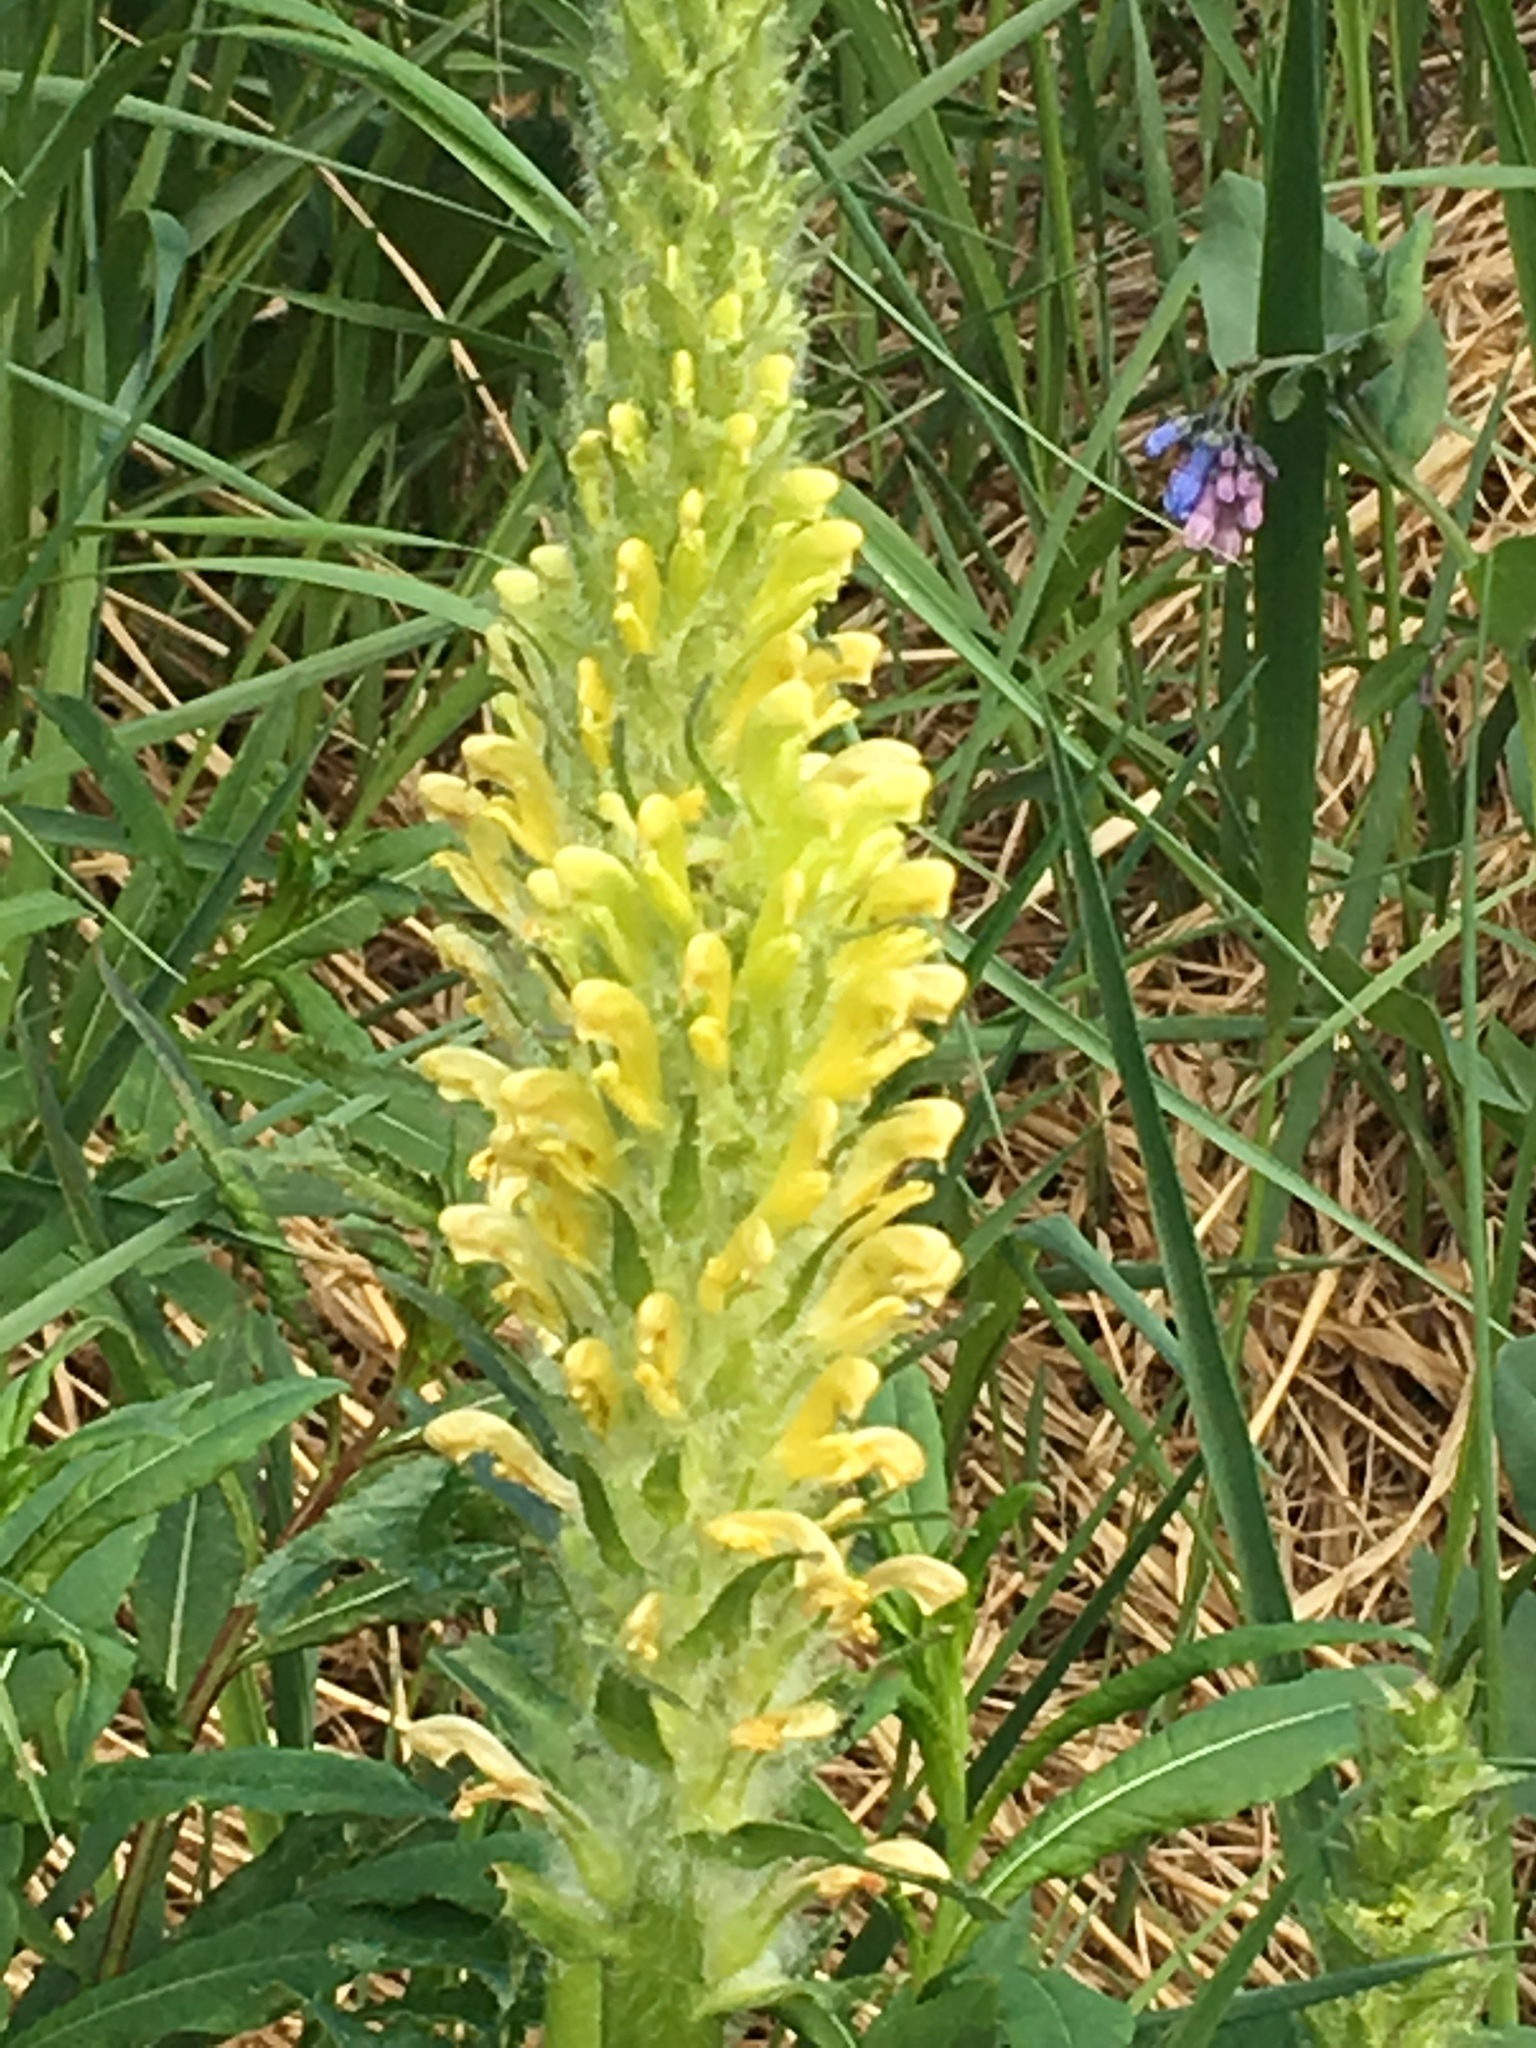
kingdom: Plantae
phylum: Tracheophyta
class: Magnoliopsida
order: Lamiales
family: Orobanchaceae
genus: Pedicularis
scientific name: Pedicularis bracteosa
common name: Bracted lousewort
